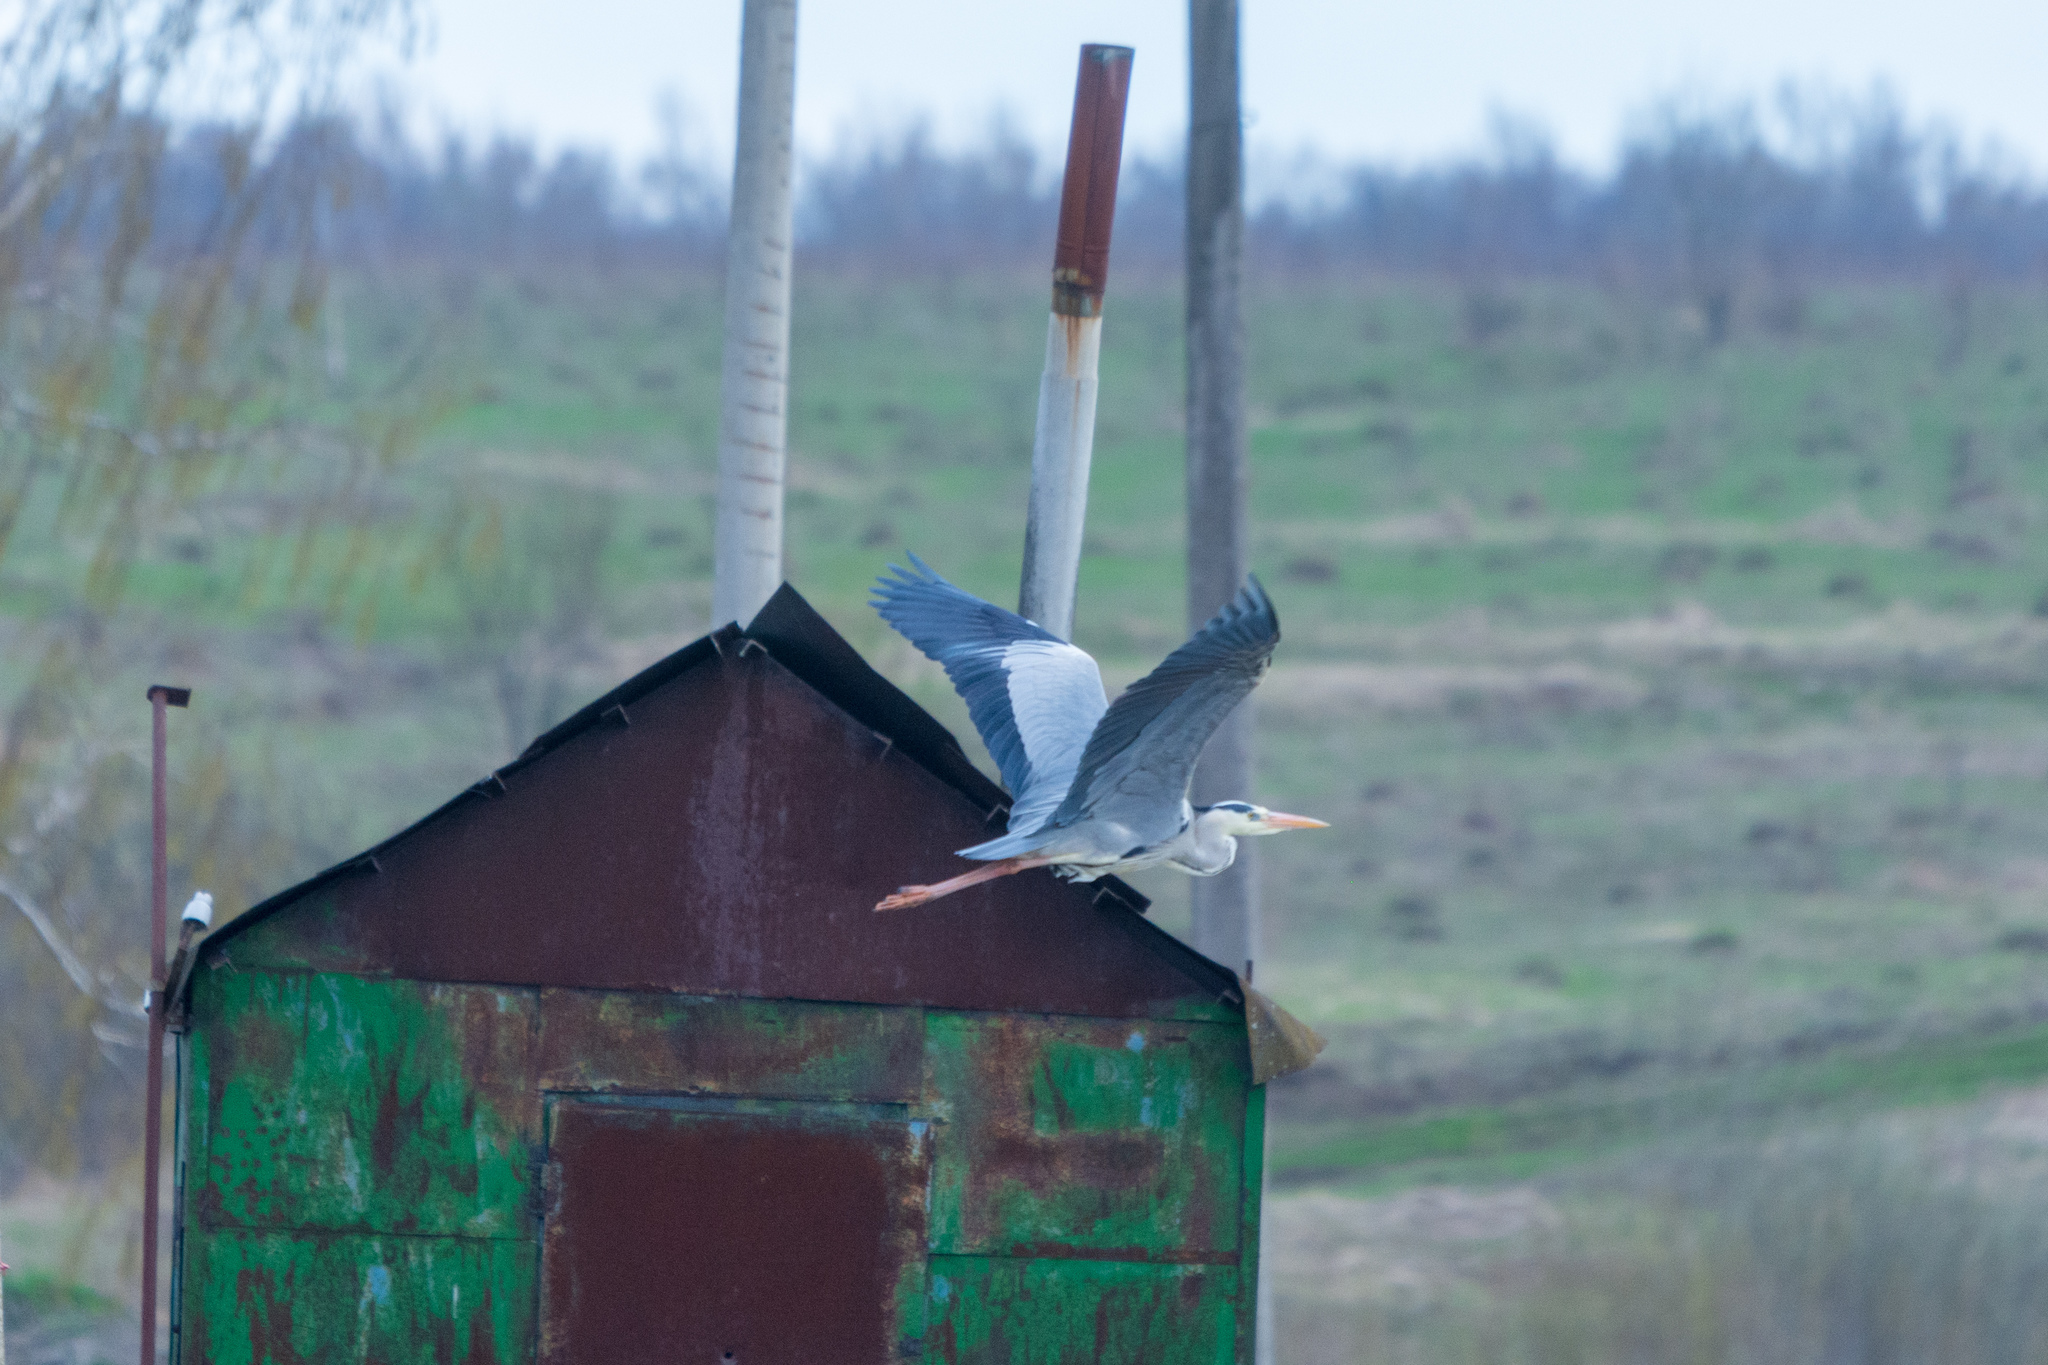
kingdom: Animalia
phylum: Chordata
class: Aves
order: Pelecaniformes
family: Ardeidae
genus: Ardea
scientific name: Ardea cinerea
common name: Grey heron
